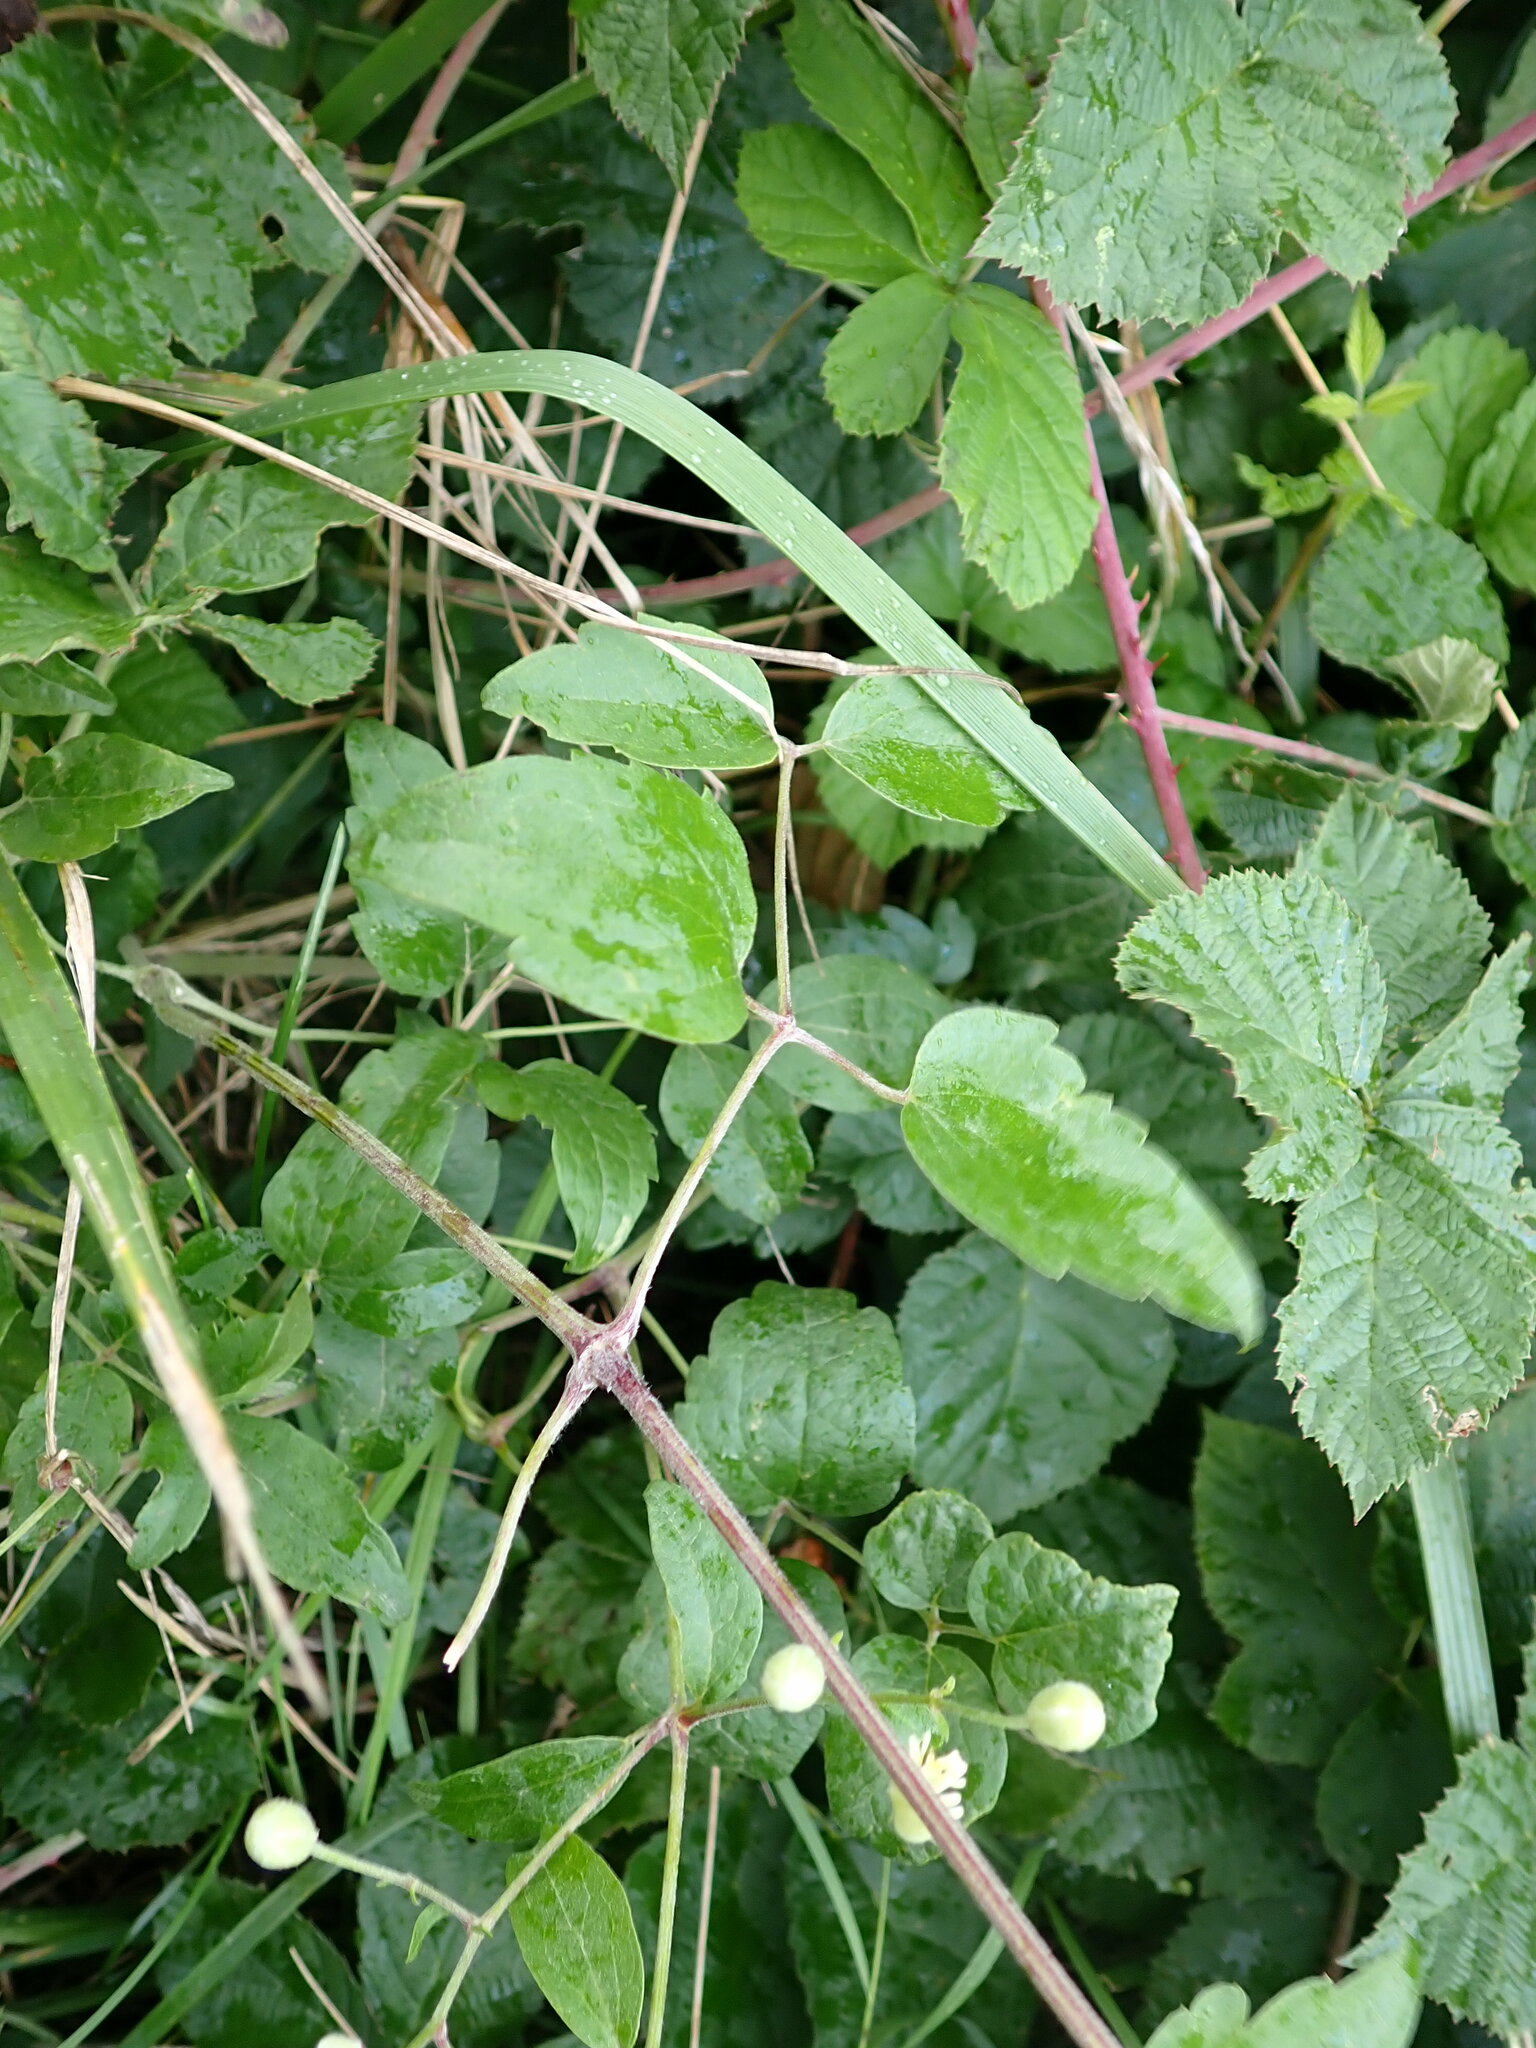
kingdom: Plantae
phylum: Tracheophyta
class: Magnoliopsida
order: Ranunculales
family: Ranunculaceae
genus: Clematis
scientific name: Clematis vitalba
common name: Evergreen clematis
